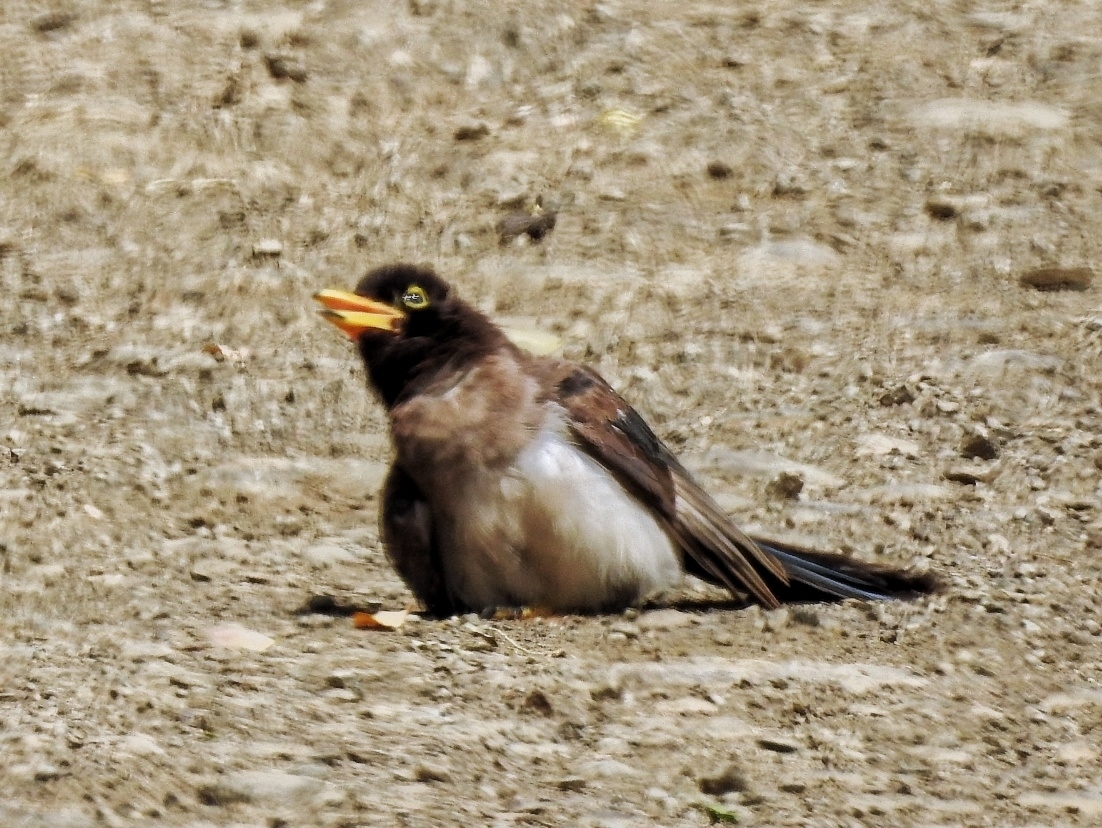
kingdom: Animalia
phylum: Chordata
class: Aves
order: Passeriformes
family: Corvidae
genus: Psilorhinus
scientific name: Psilorhinus morio
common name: Brown jay
